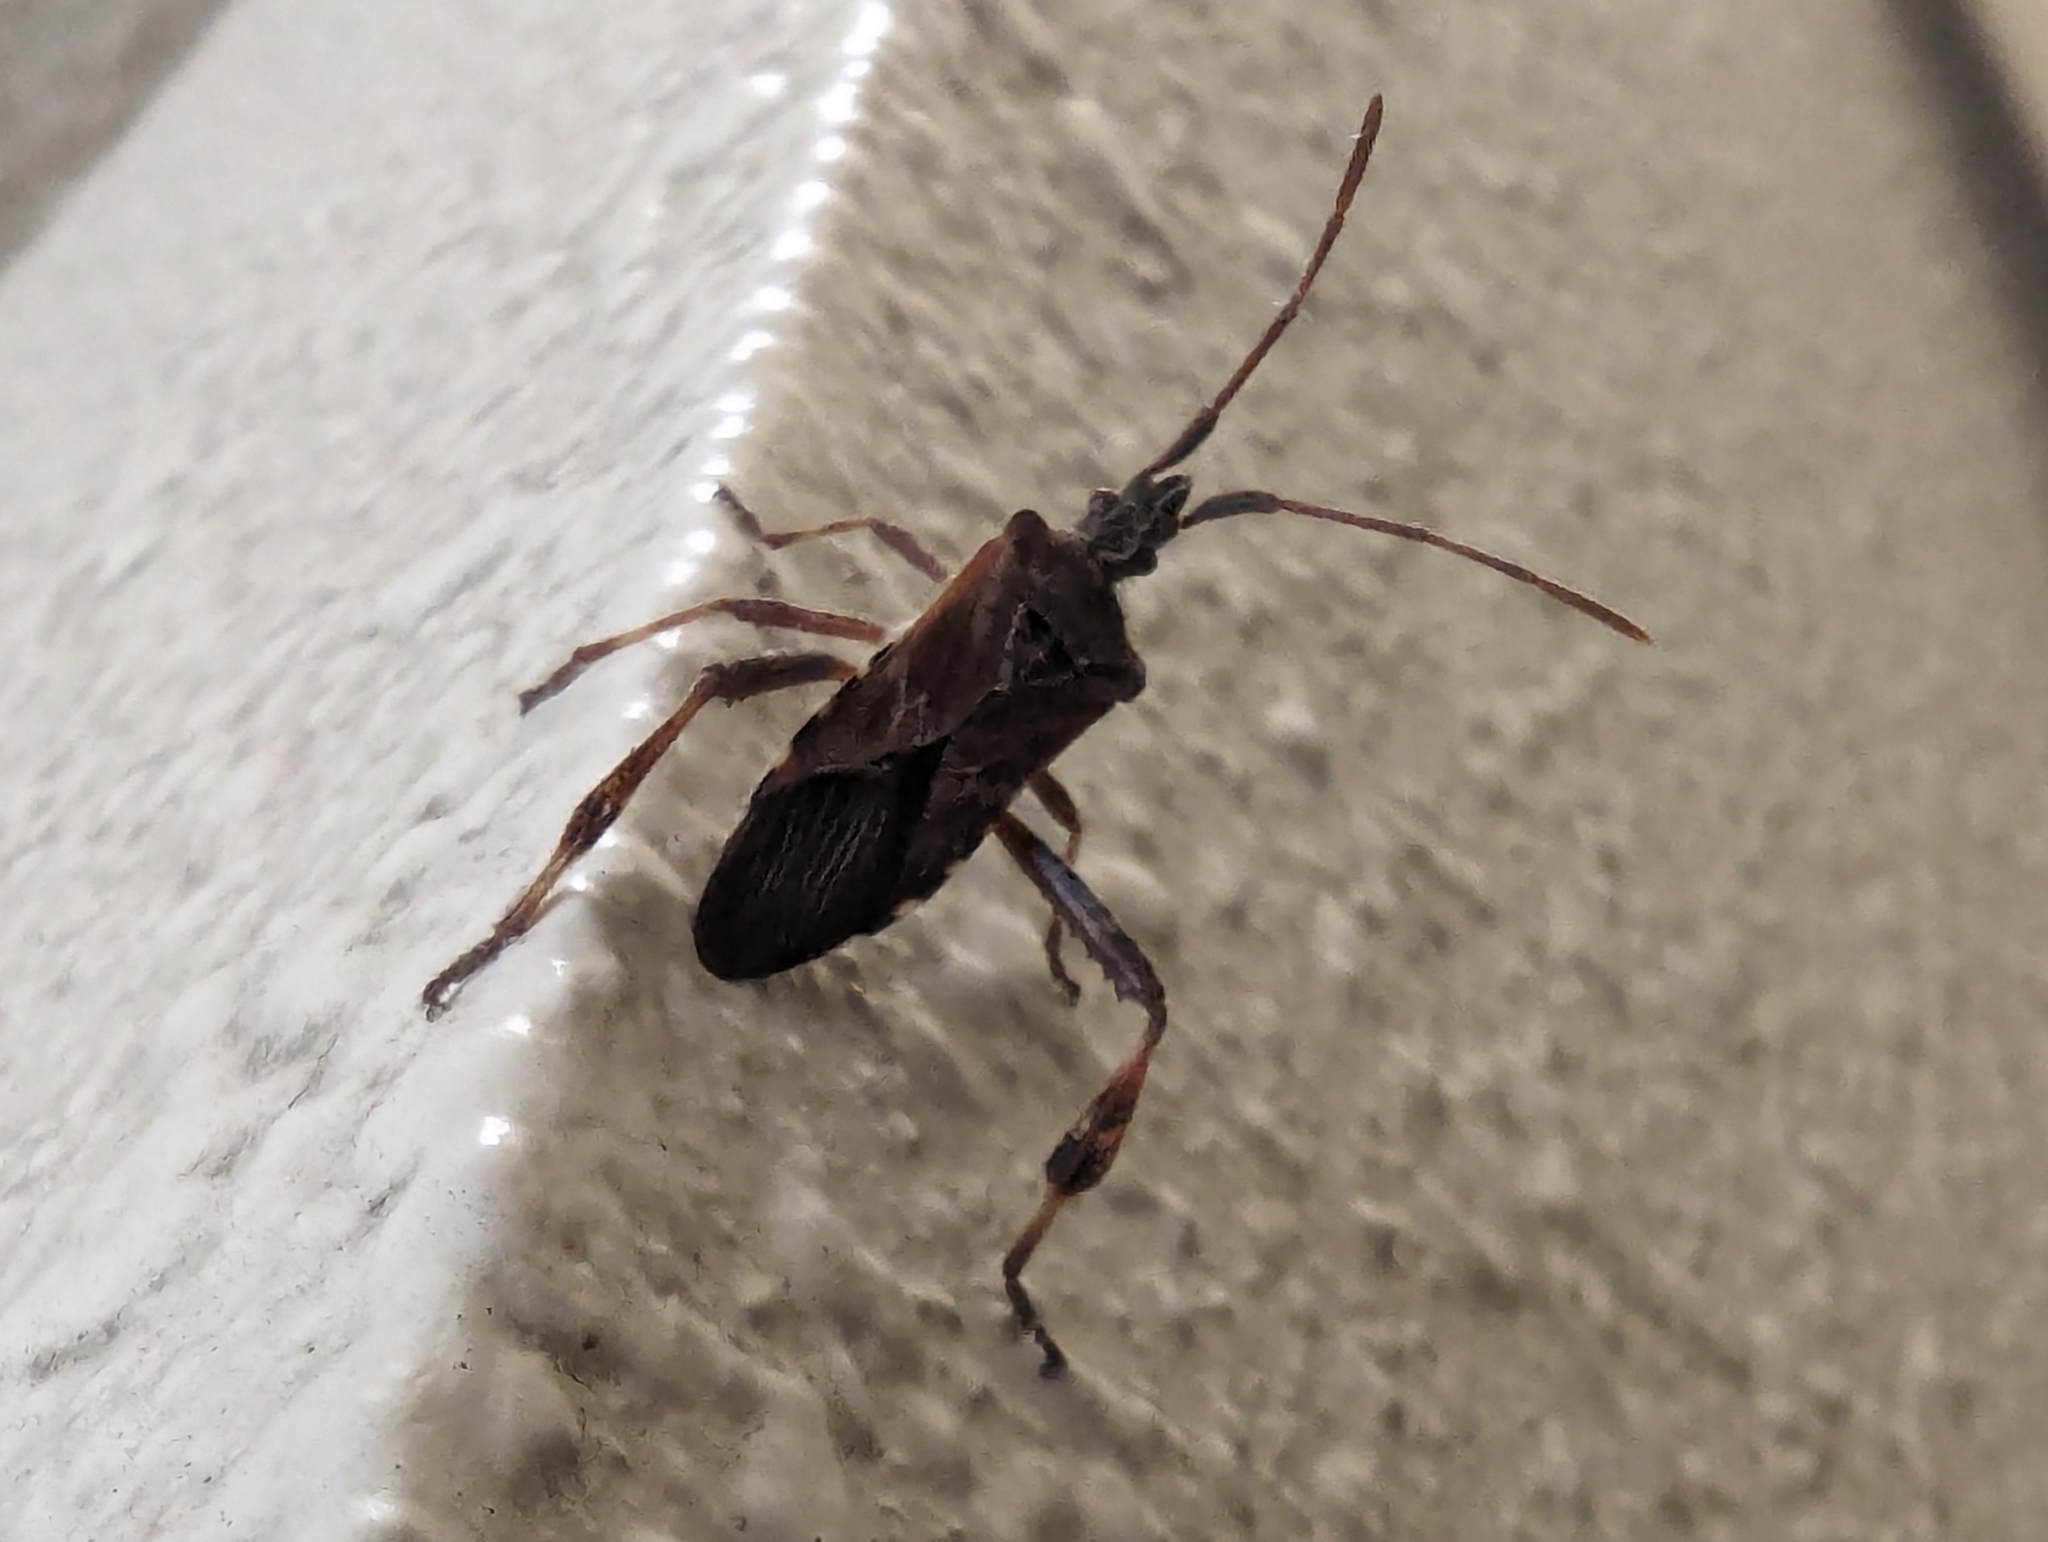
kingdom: Animalia
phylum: Arthropoda
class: Insecta
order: Hemiptera
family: Coreidae
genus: Leptoglossus
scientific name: Leptoglossus occidentalis
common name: Western conifer-seed bug
